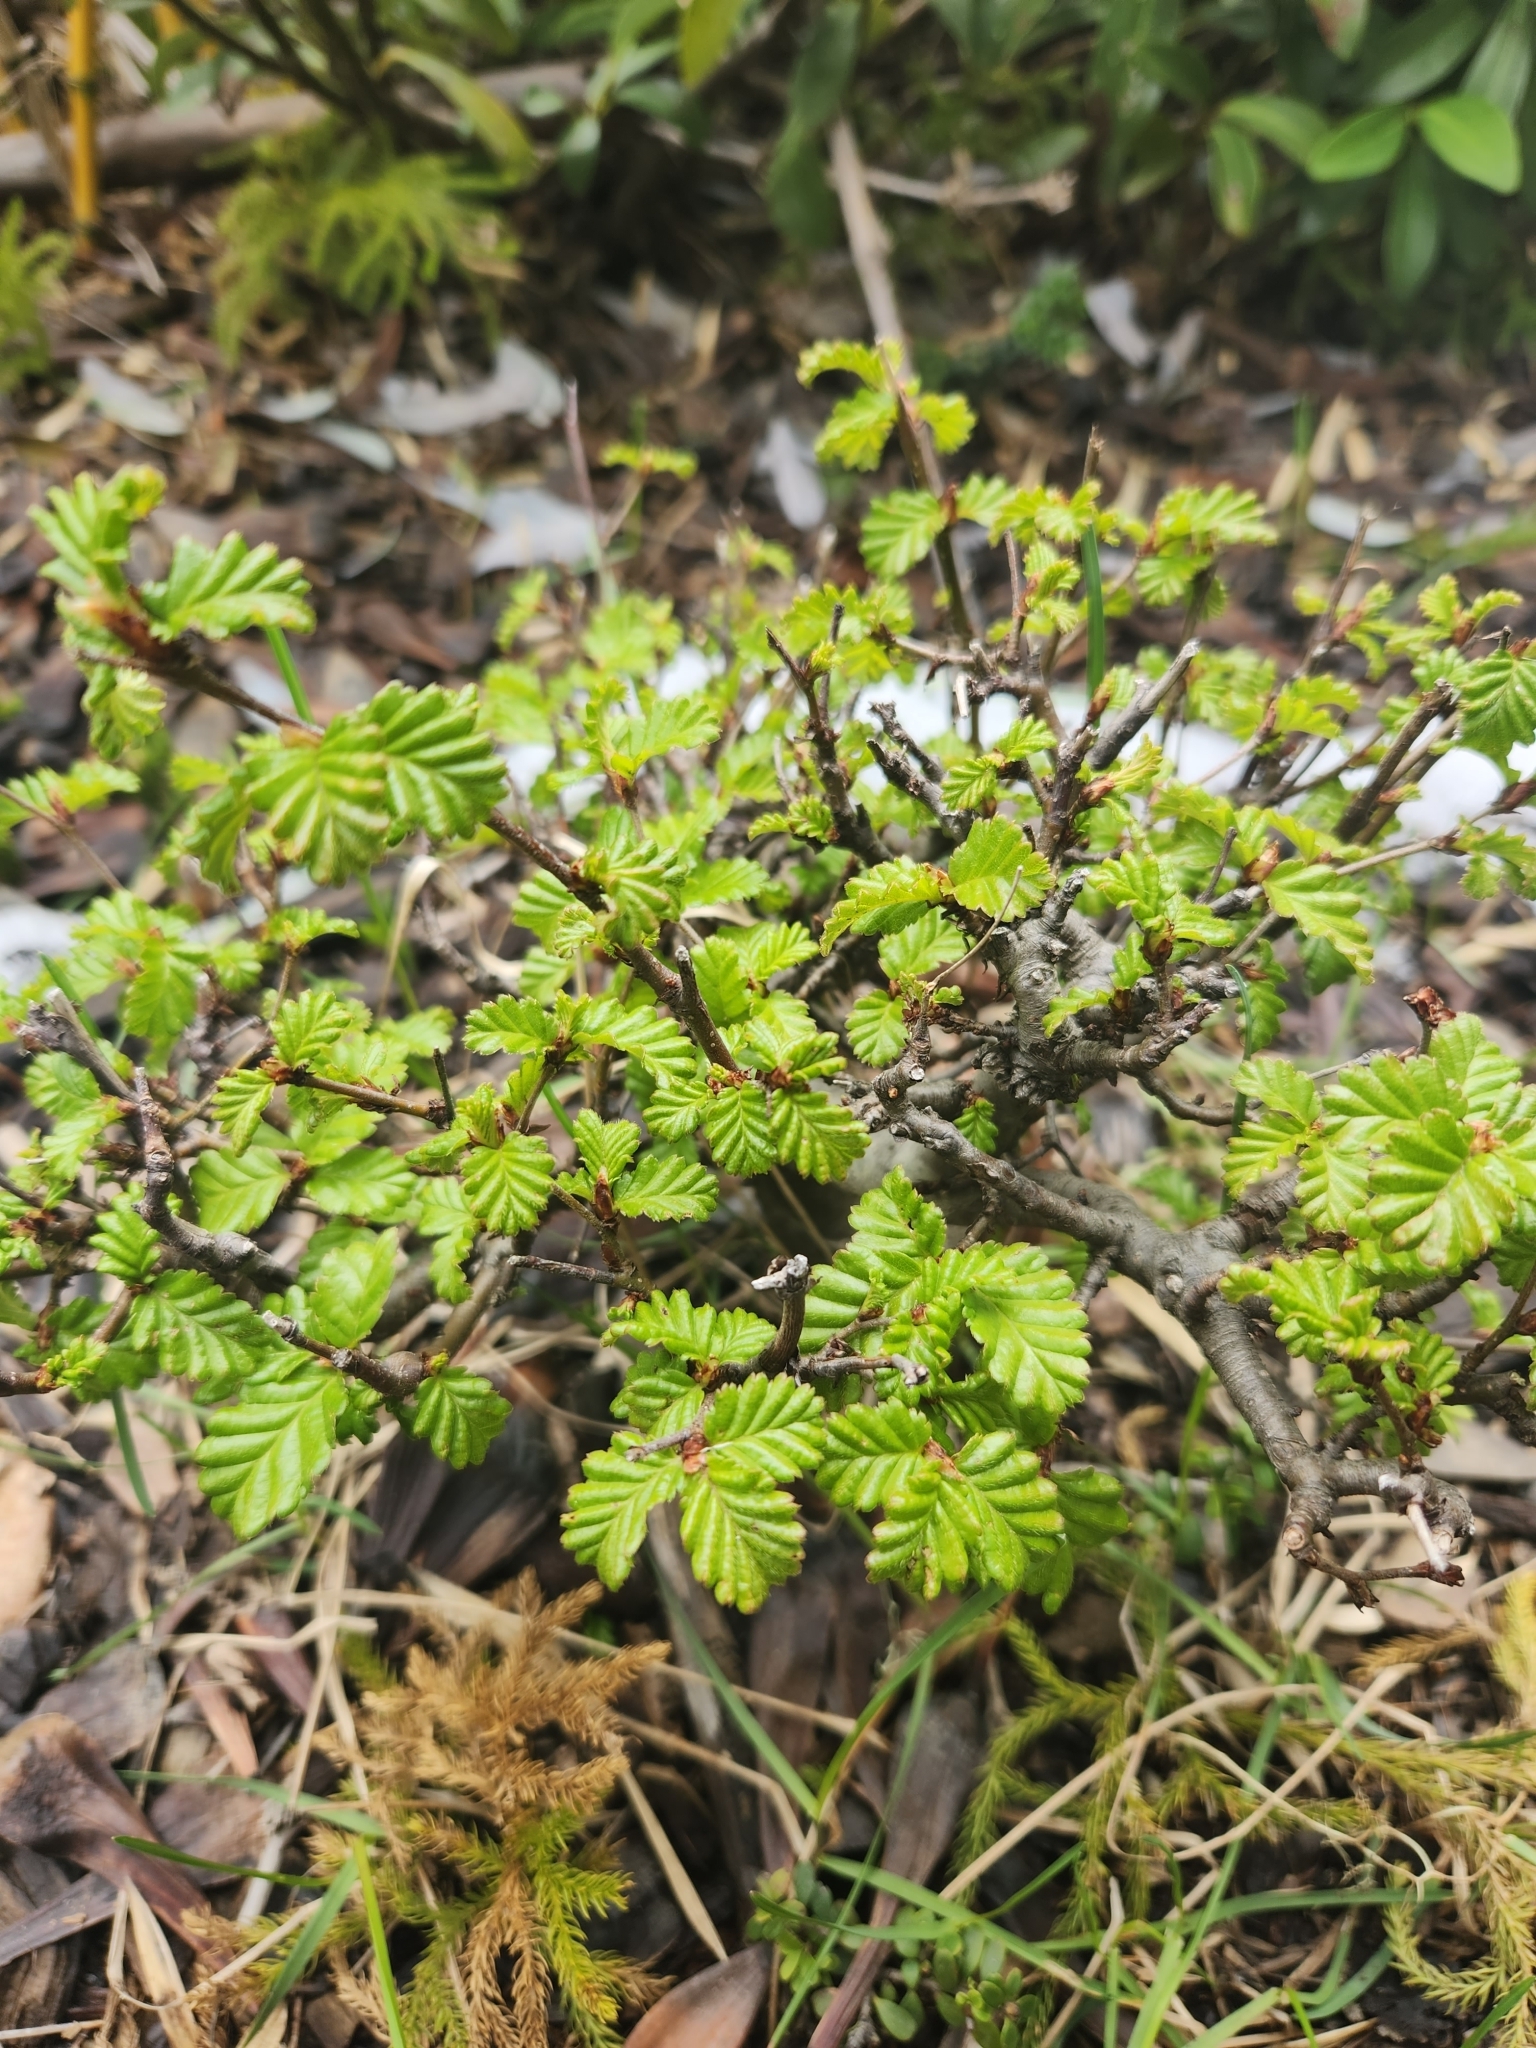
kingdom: Plantae
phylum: Tracheophyta
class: Magnoliopsida
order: Fagales
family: Nothofagaceae
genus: Nothofagus
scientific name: Nothofagus pumilio
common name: Lenga beech
